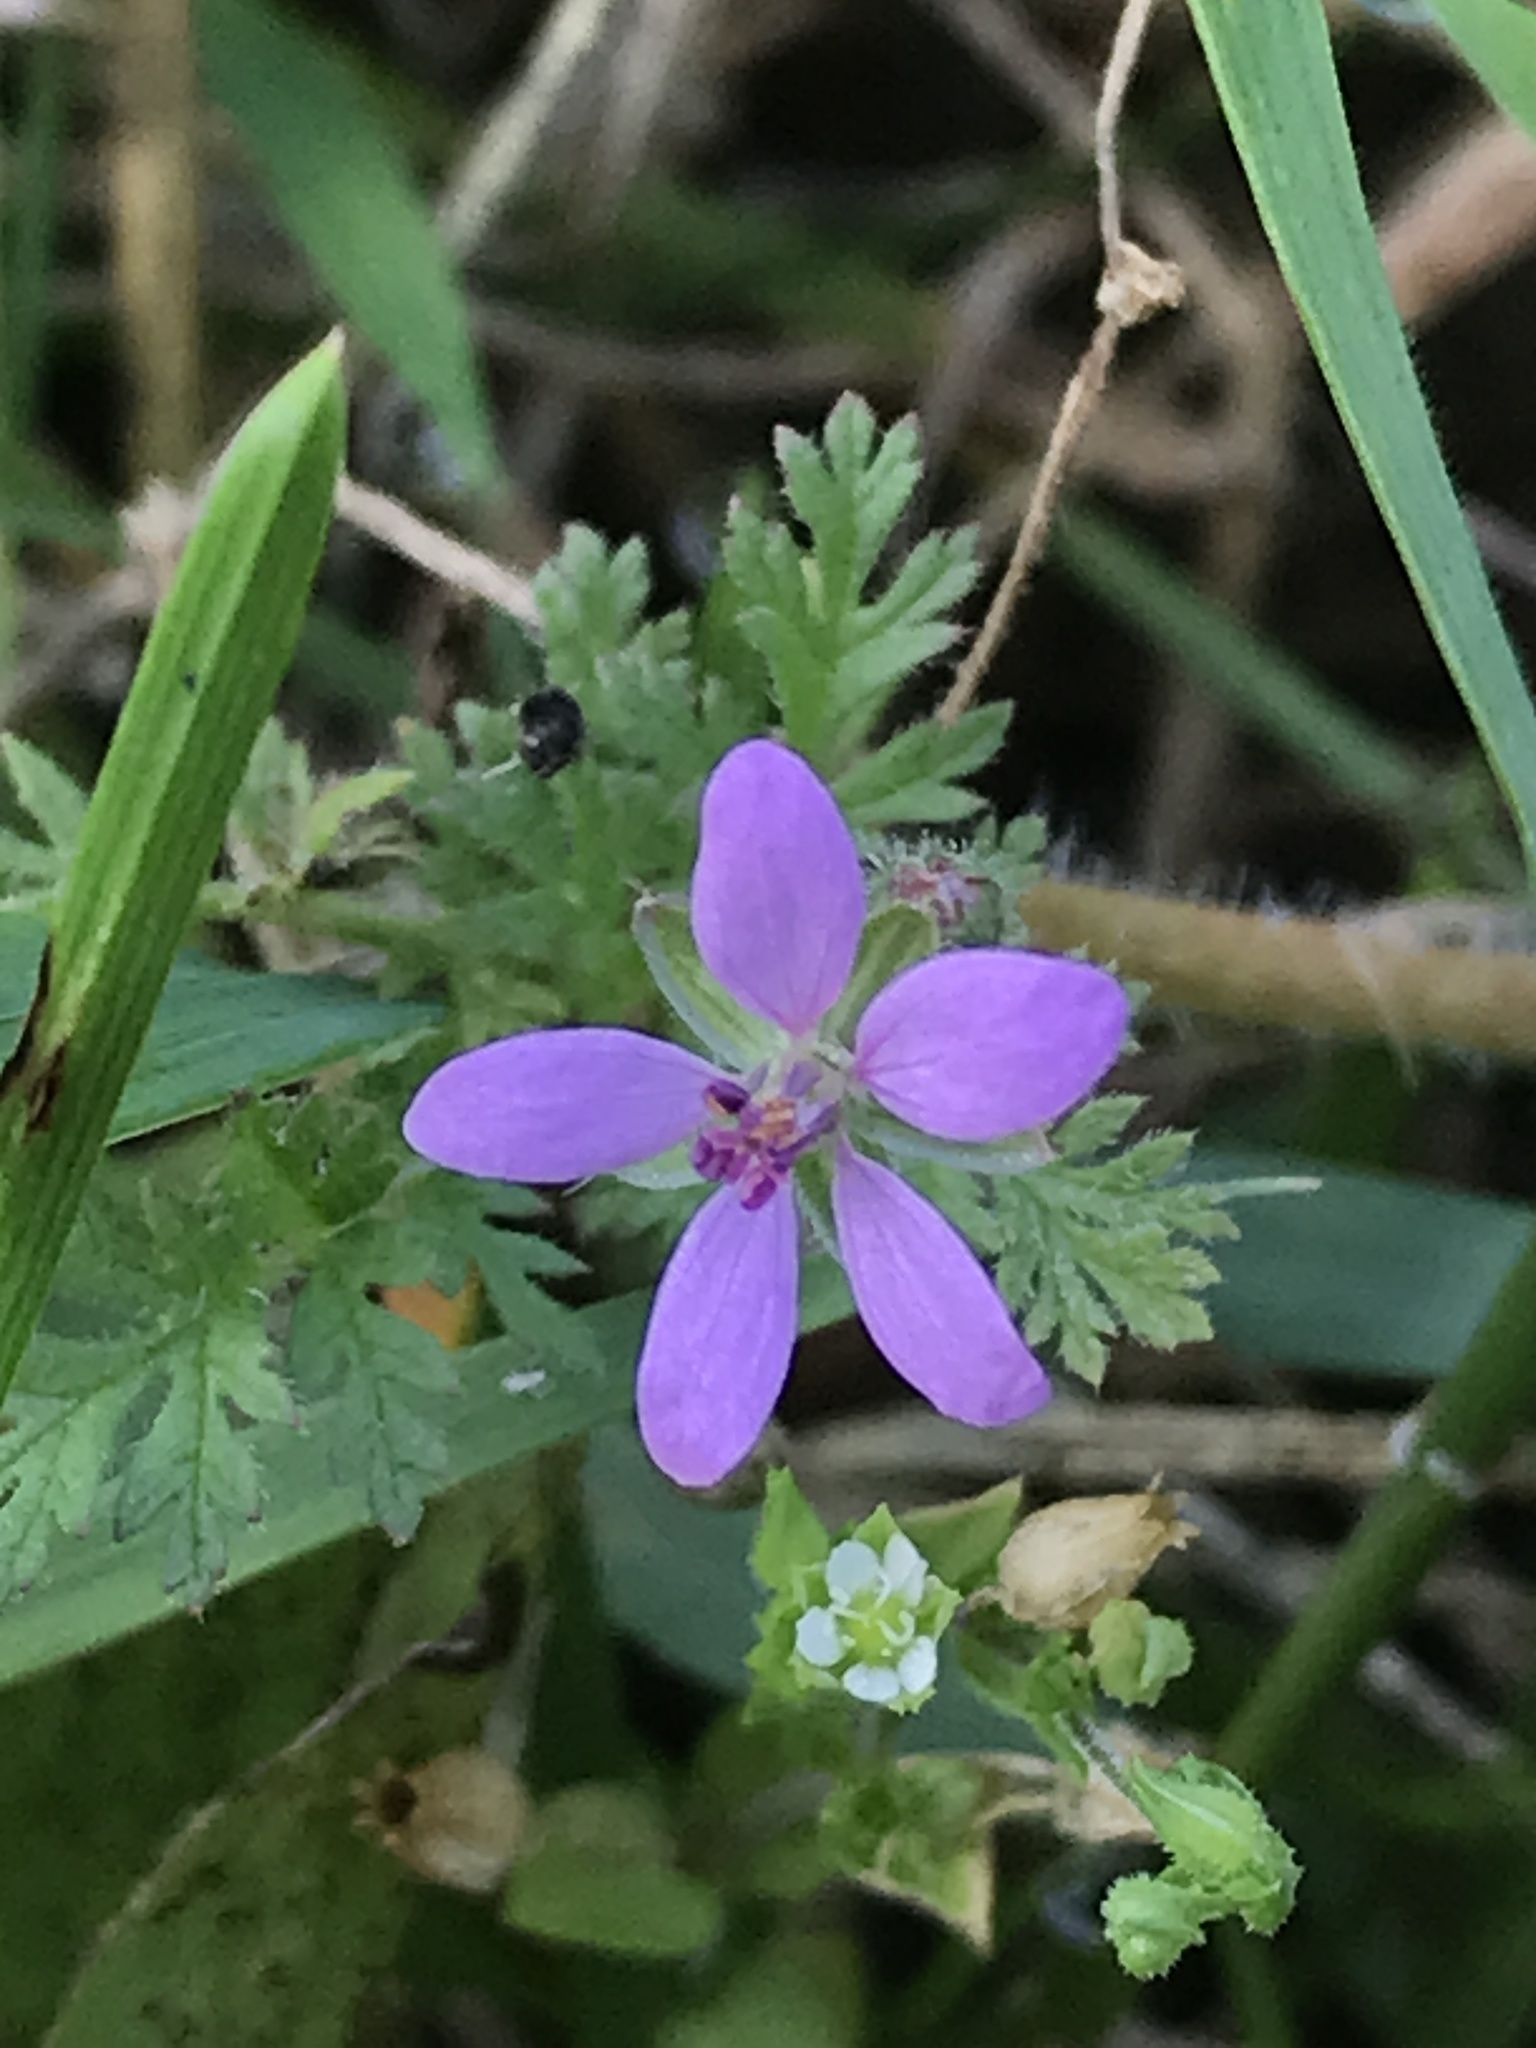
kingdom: Plantae
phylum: Tracheophyta
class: Magnoliopsida
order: Geraniales
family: Geraniaceae
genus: Erodium
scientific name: Erodium cicutarium
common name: Common stork's-bill
